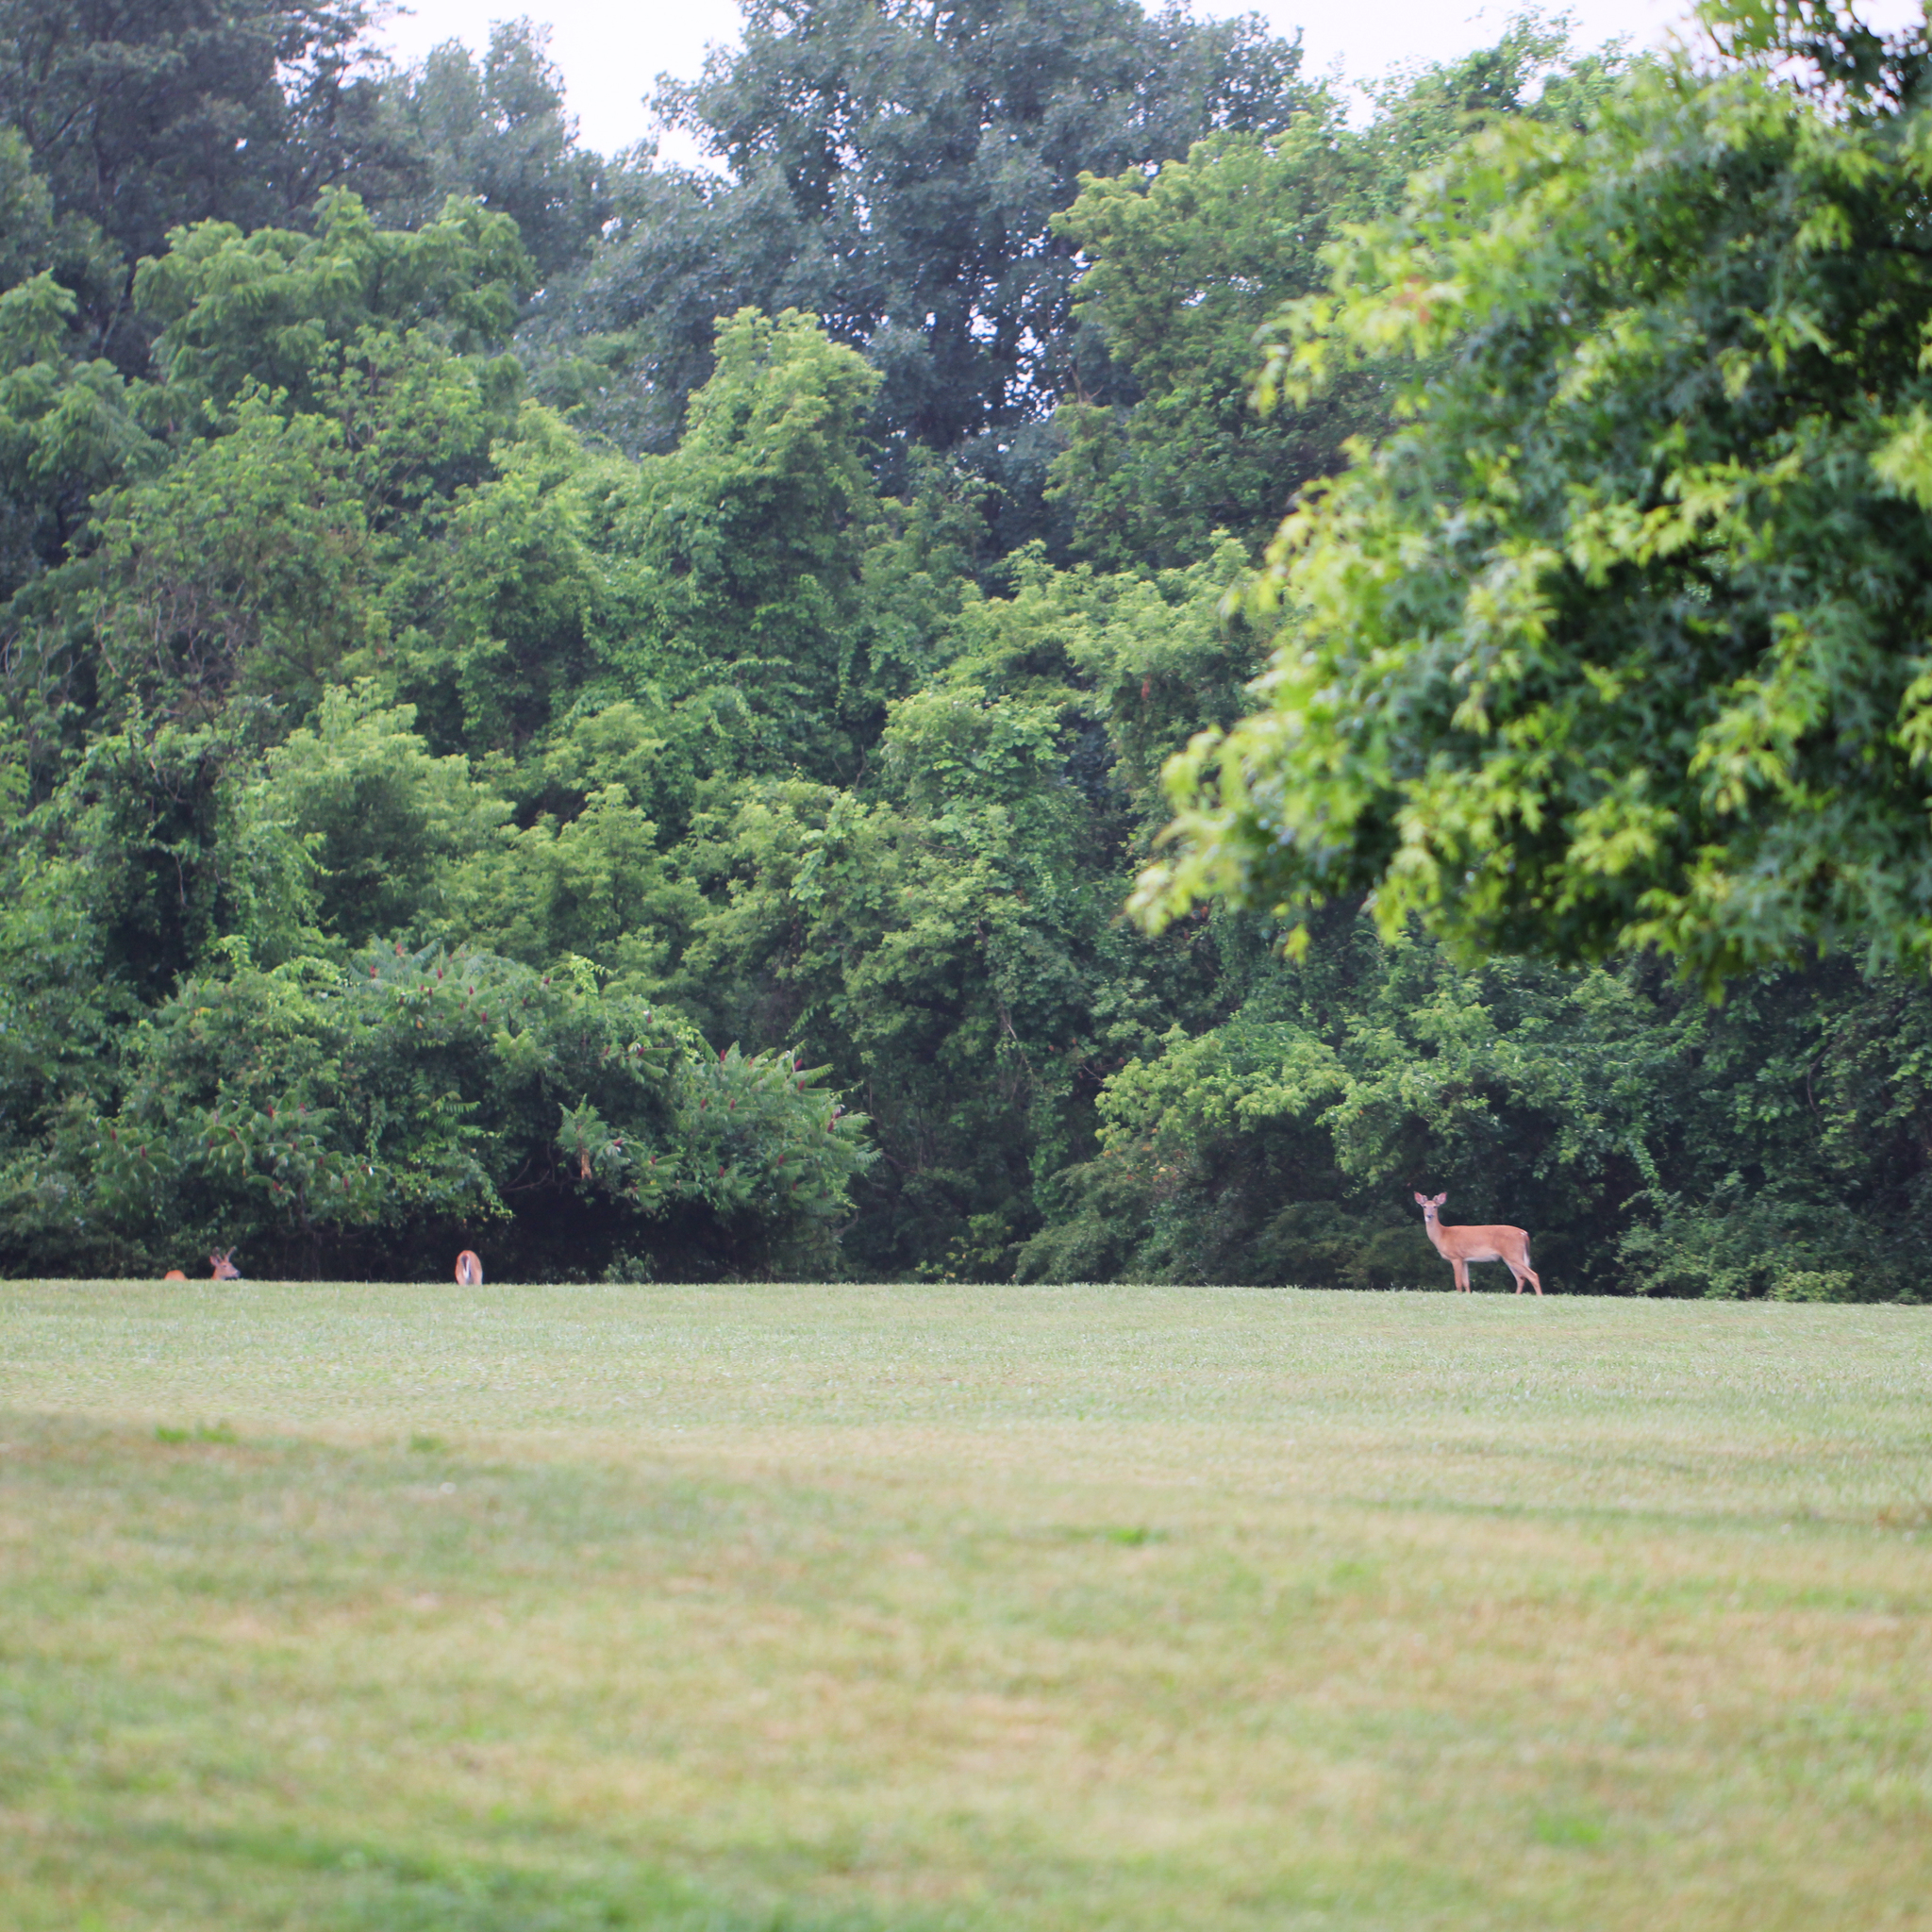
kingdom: Animalia
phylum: Chordata
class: Mammalia
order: Artiodactyla
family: Cervidae
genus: Odocoileus
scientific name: Odocoileus virginianus
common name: White-tailed deer
